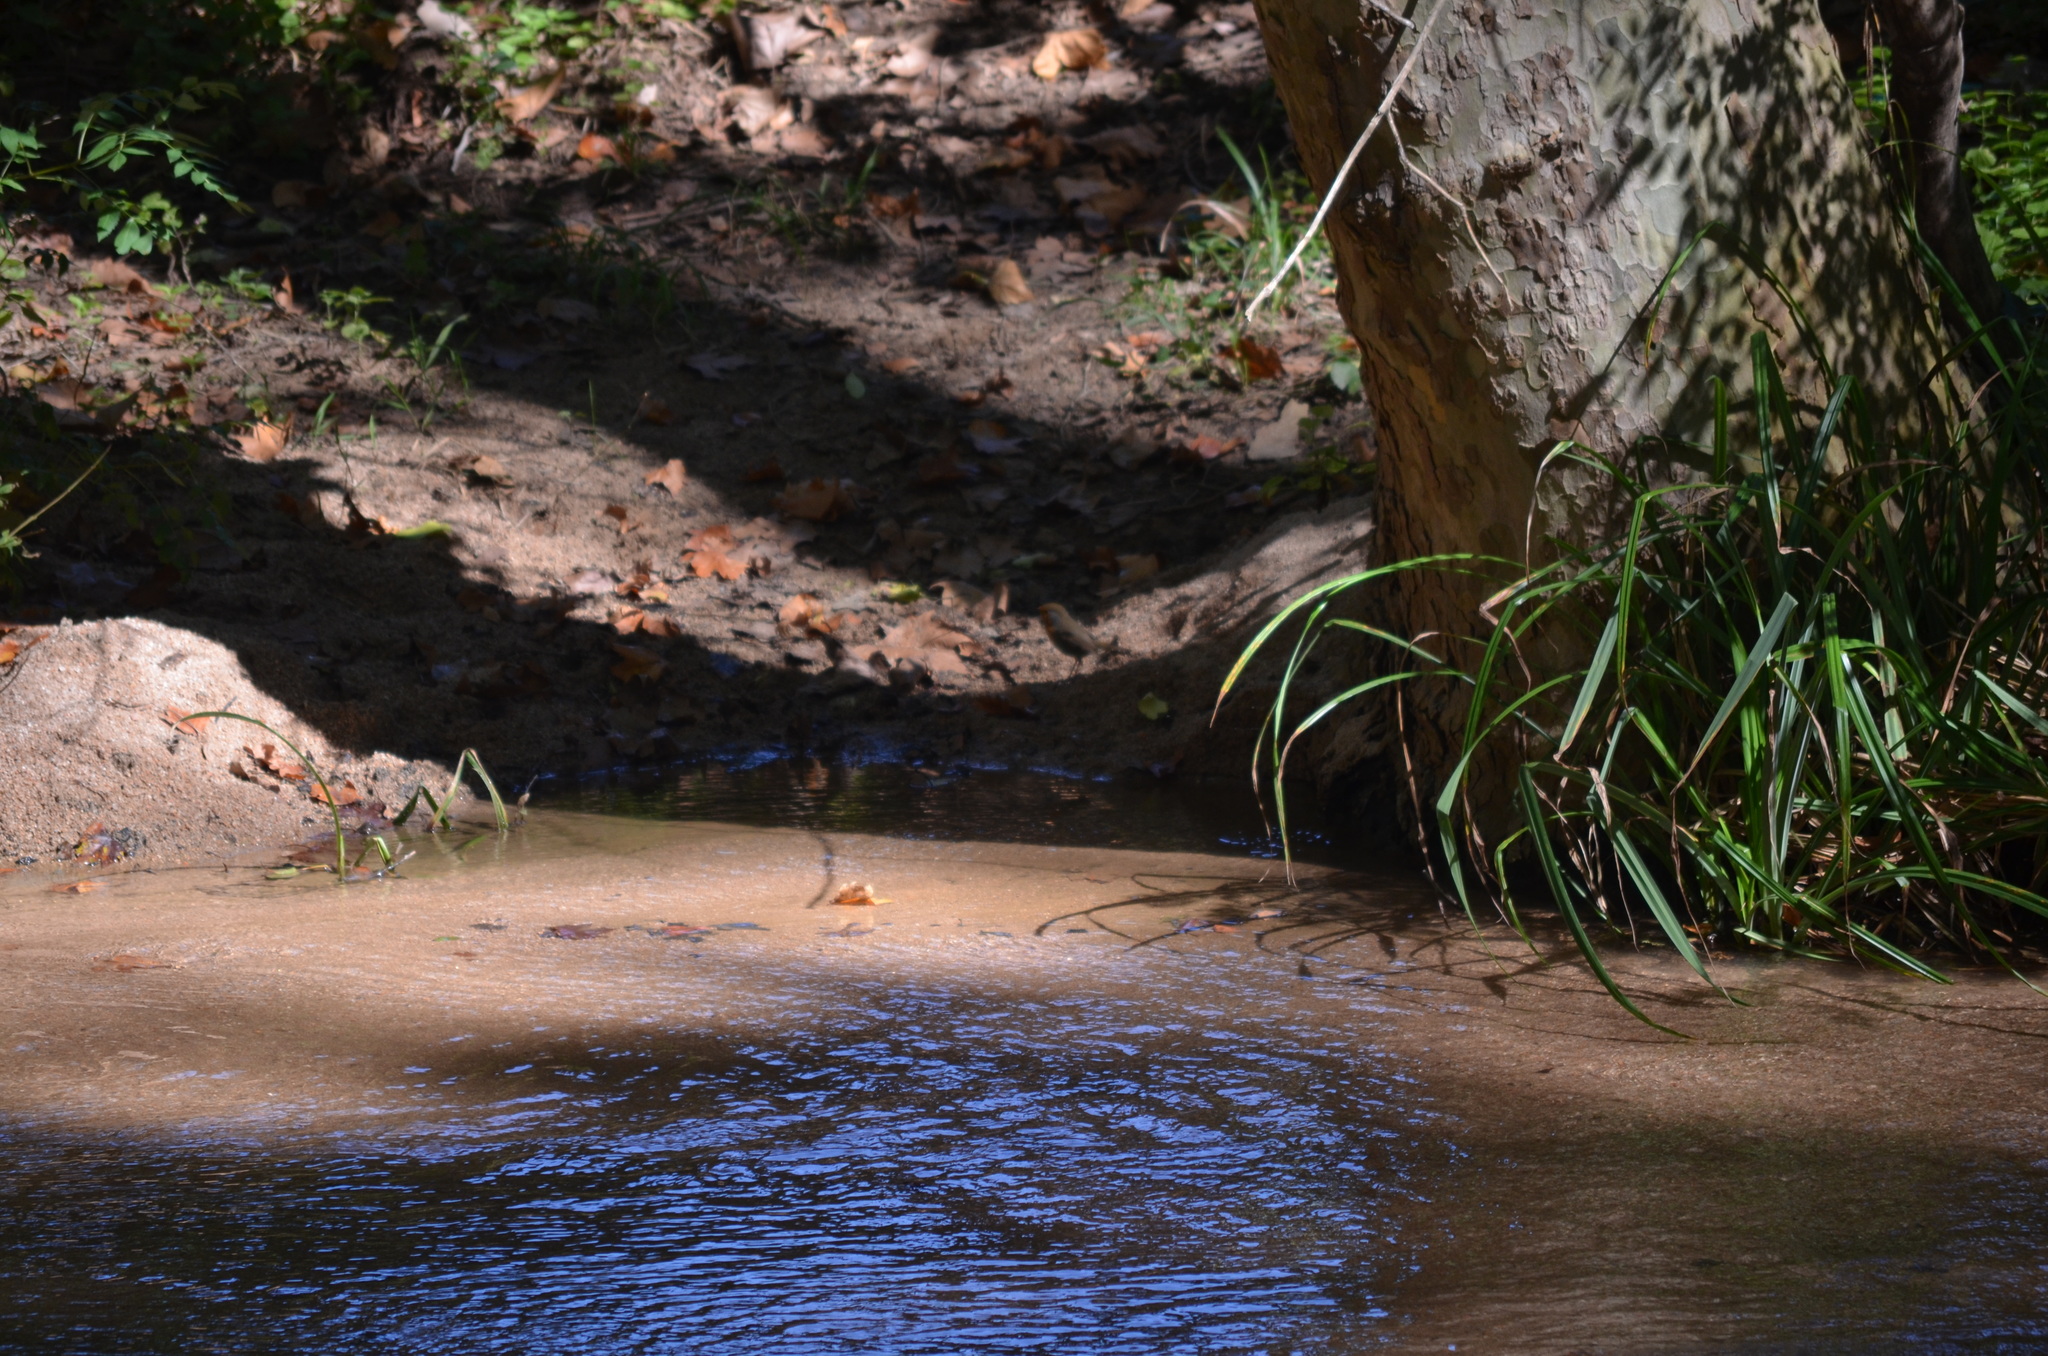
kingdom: Animalia
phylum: Chordata
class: Aves
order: Passeriformes
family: Muscicapidae
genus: Erithacus
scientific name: Erithacus rubecula
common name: European robin
